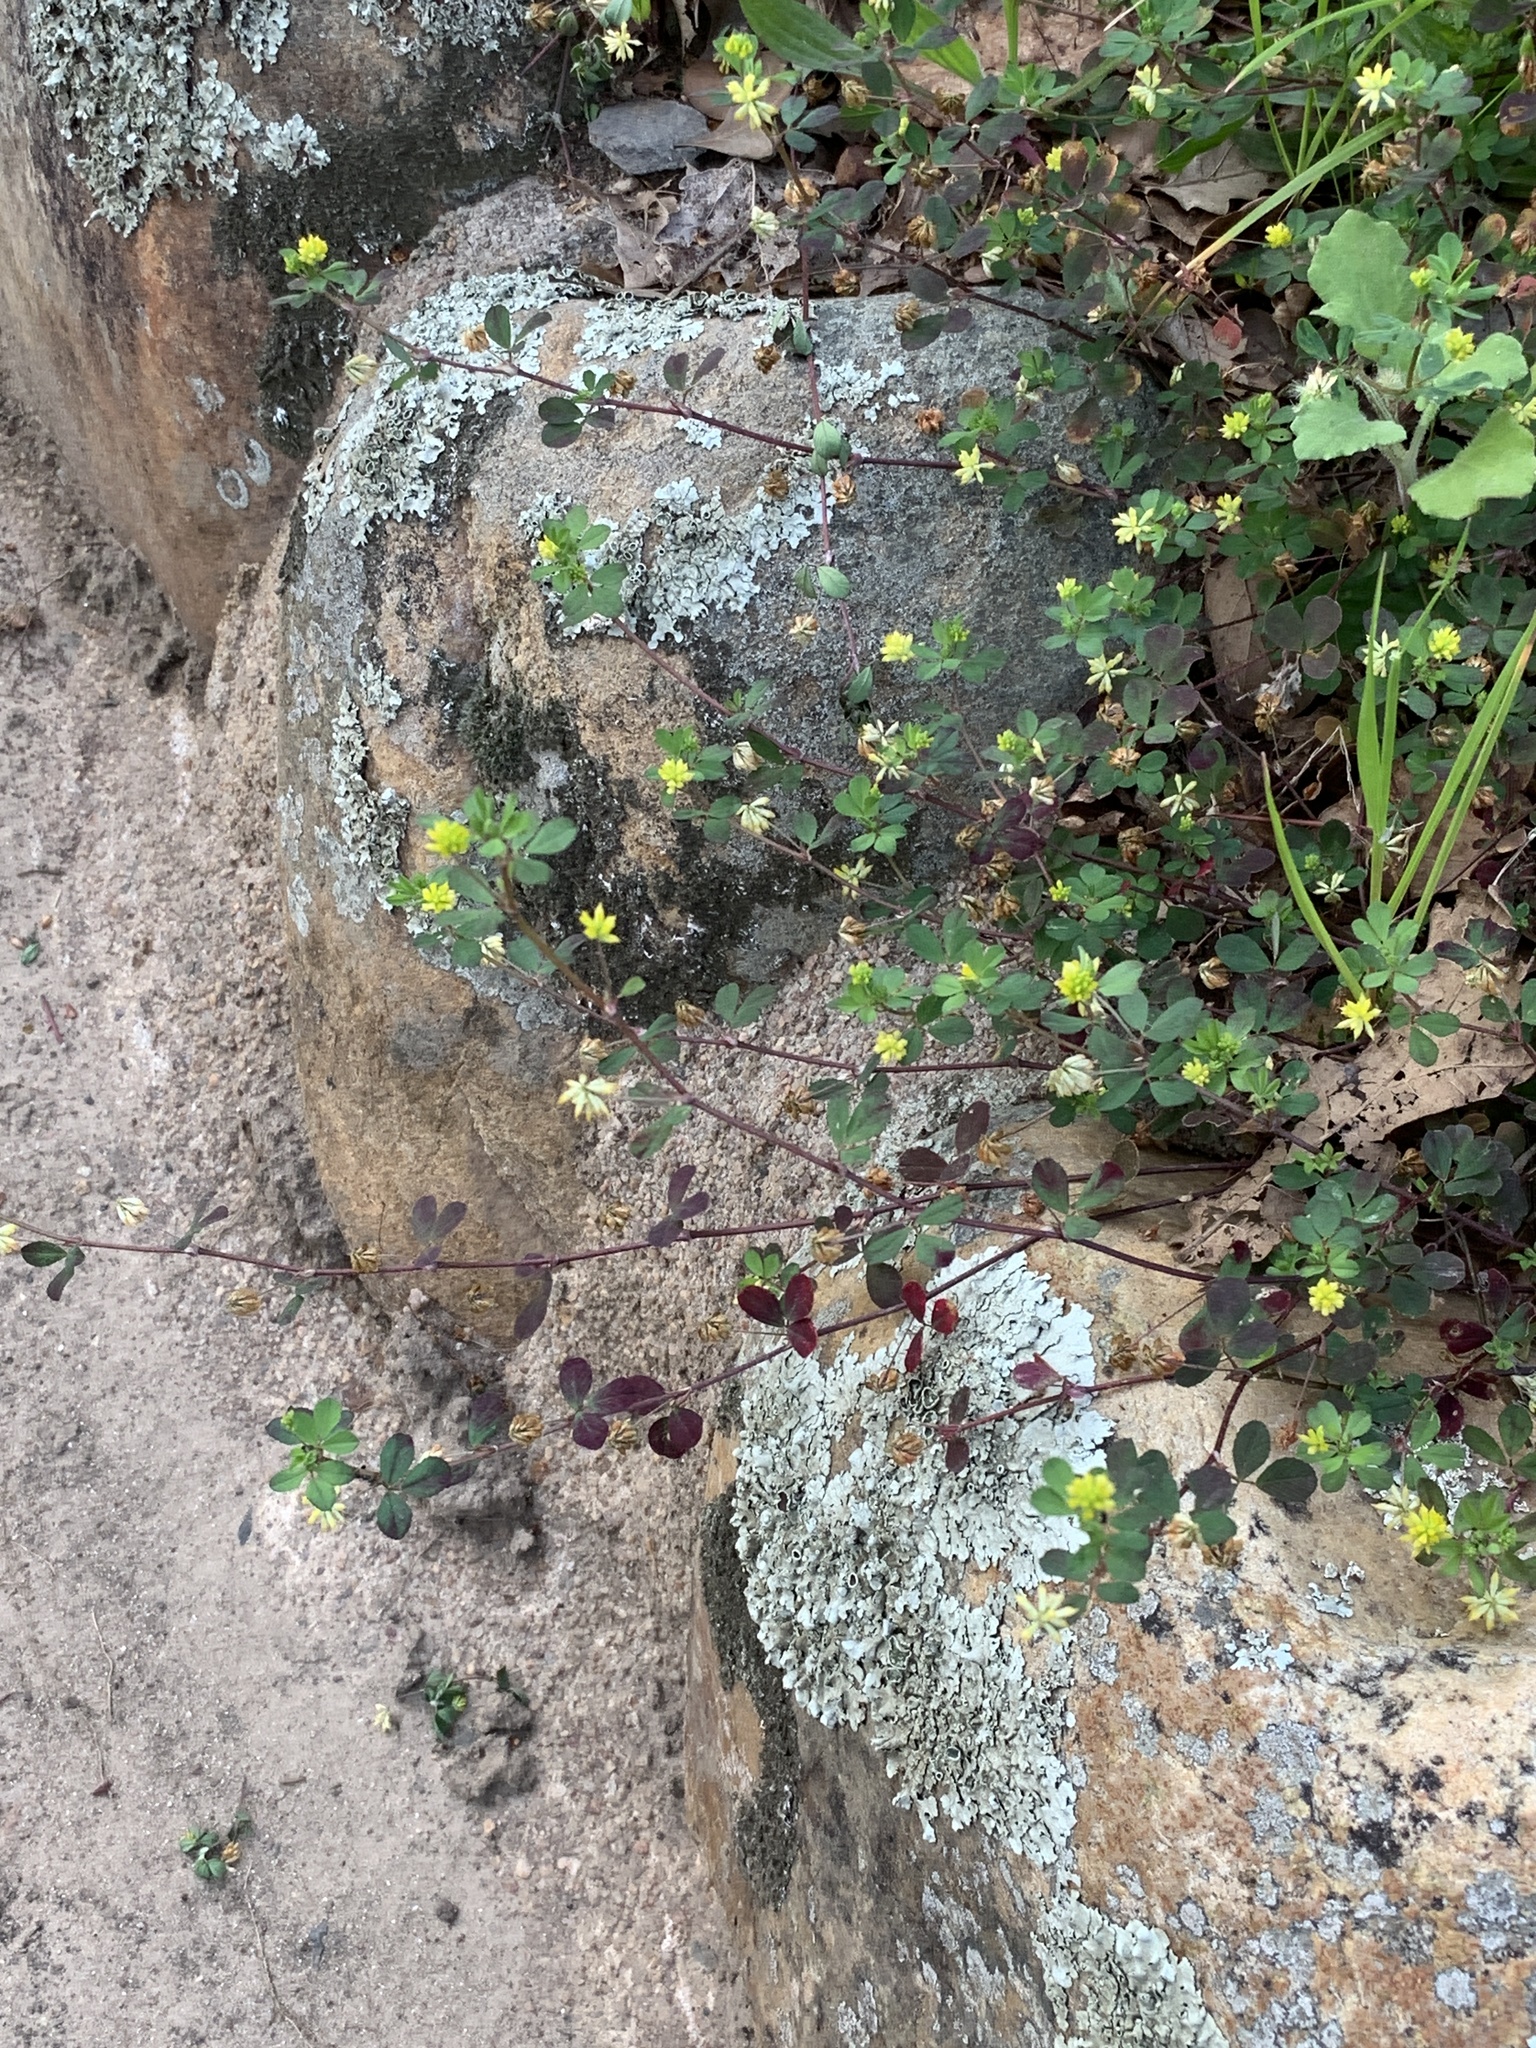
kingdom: Plantae
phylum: Tracheophyta
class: Magnoliopsida
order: Fabales
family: Fabaceae
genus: Trifolium
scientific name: Trifolium dubium
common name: Suckling clover
